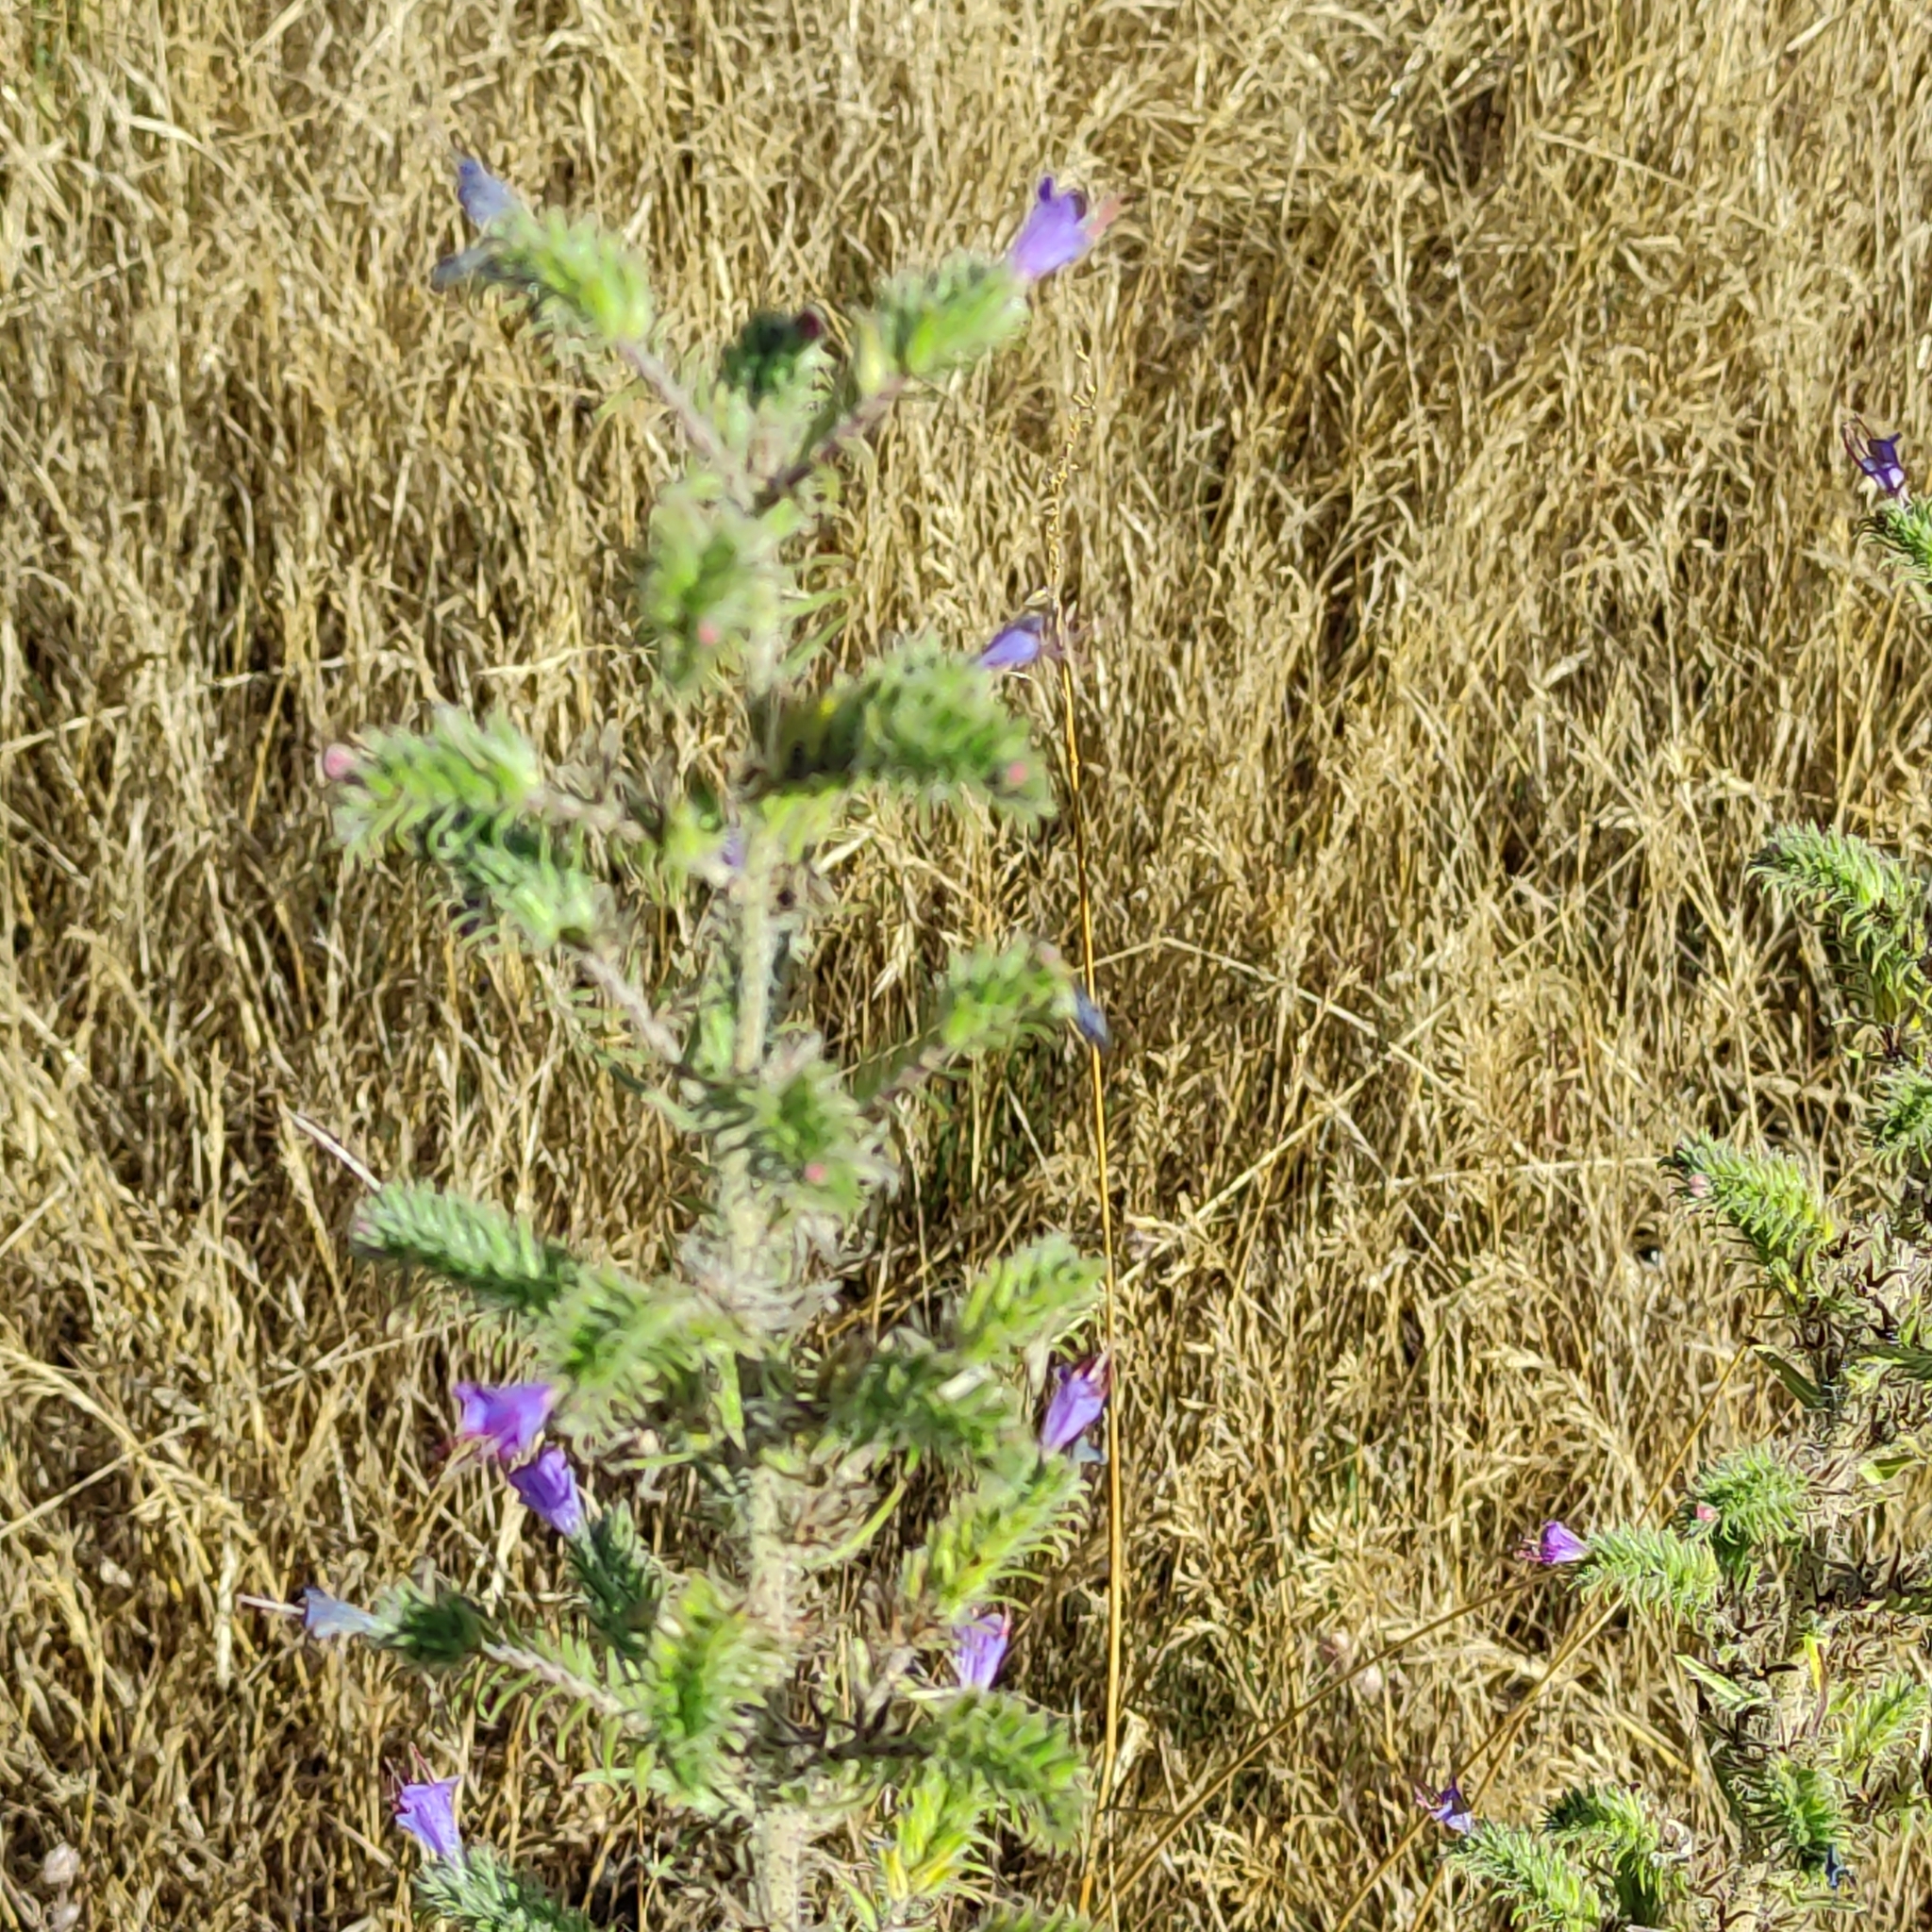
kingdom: Plantae
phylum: Tracheophyta
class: Magnoliopsida
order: Boraginales
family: Boraginaceae
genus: Echium
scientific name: Echium vulgare
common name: Common viper's bugloss
